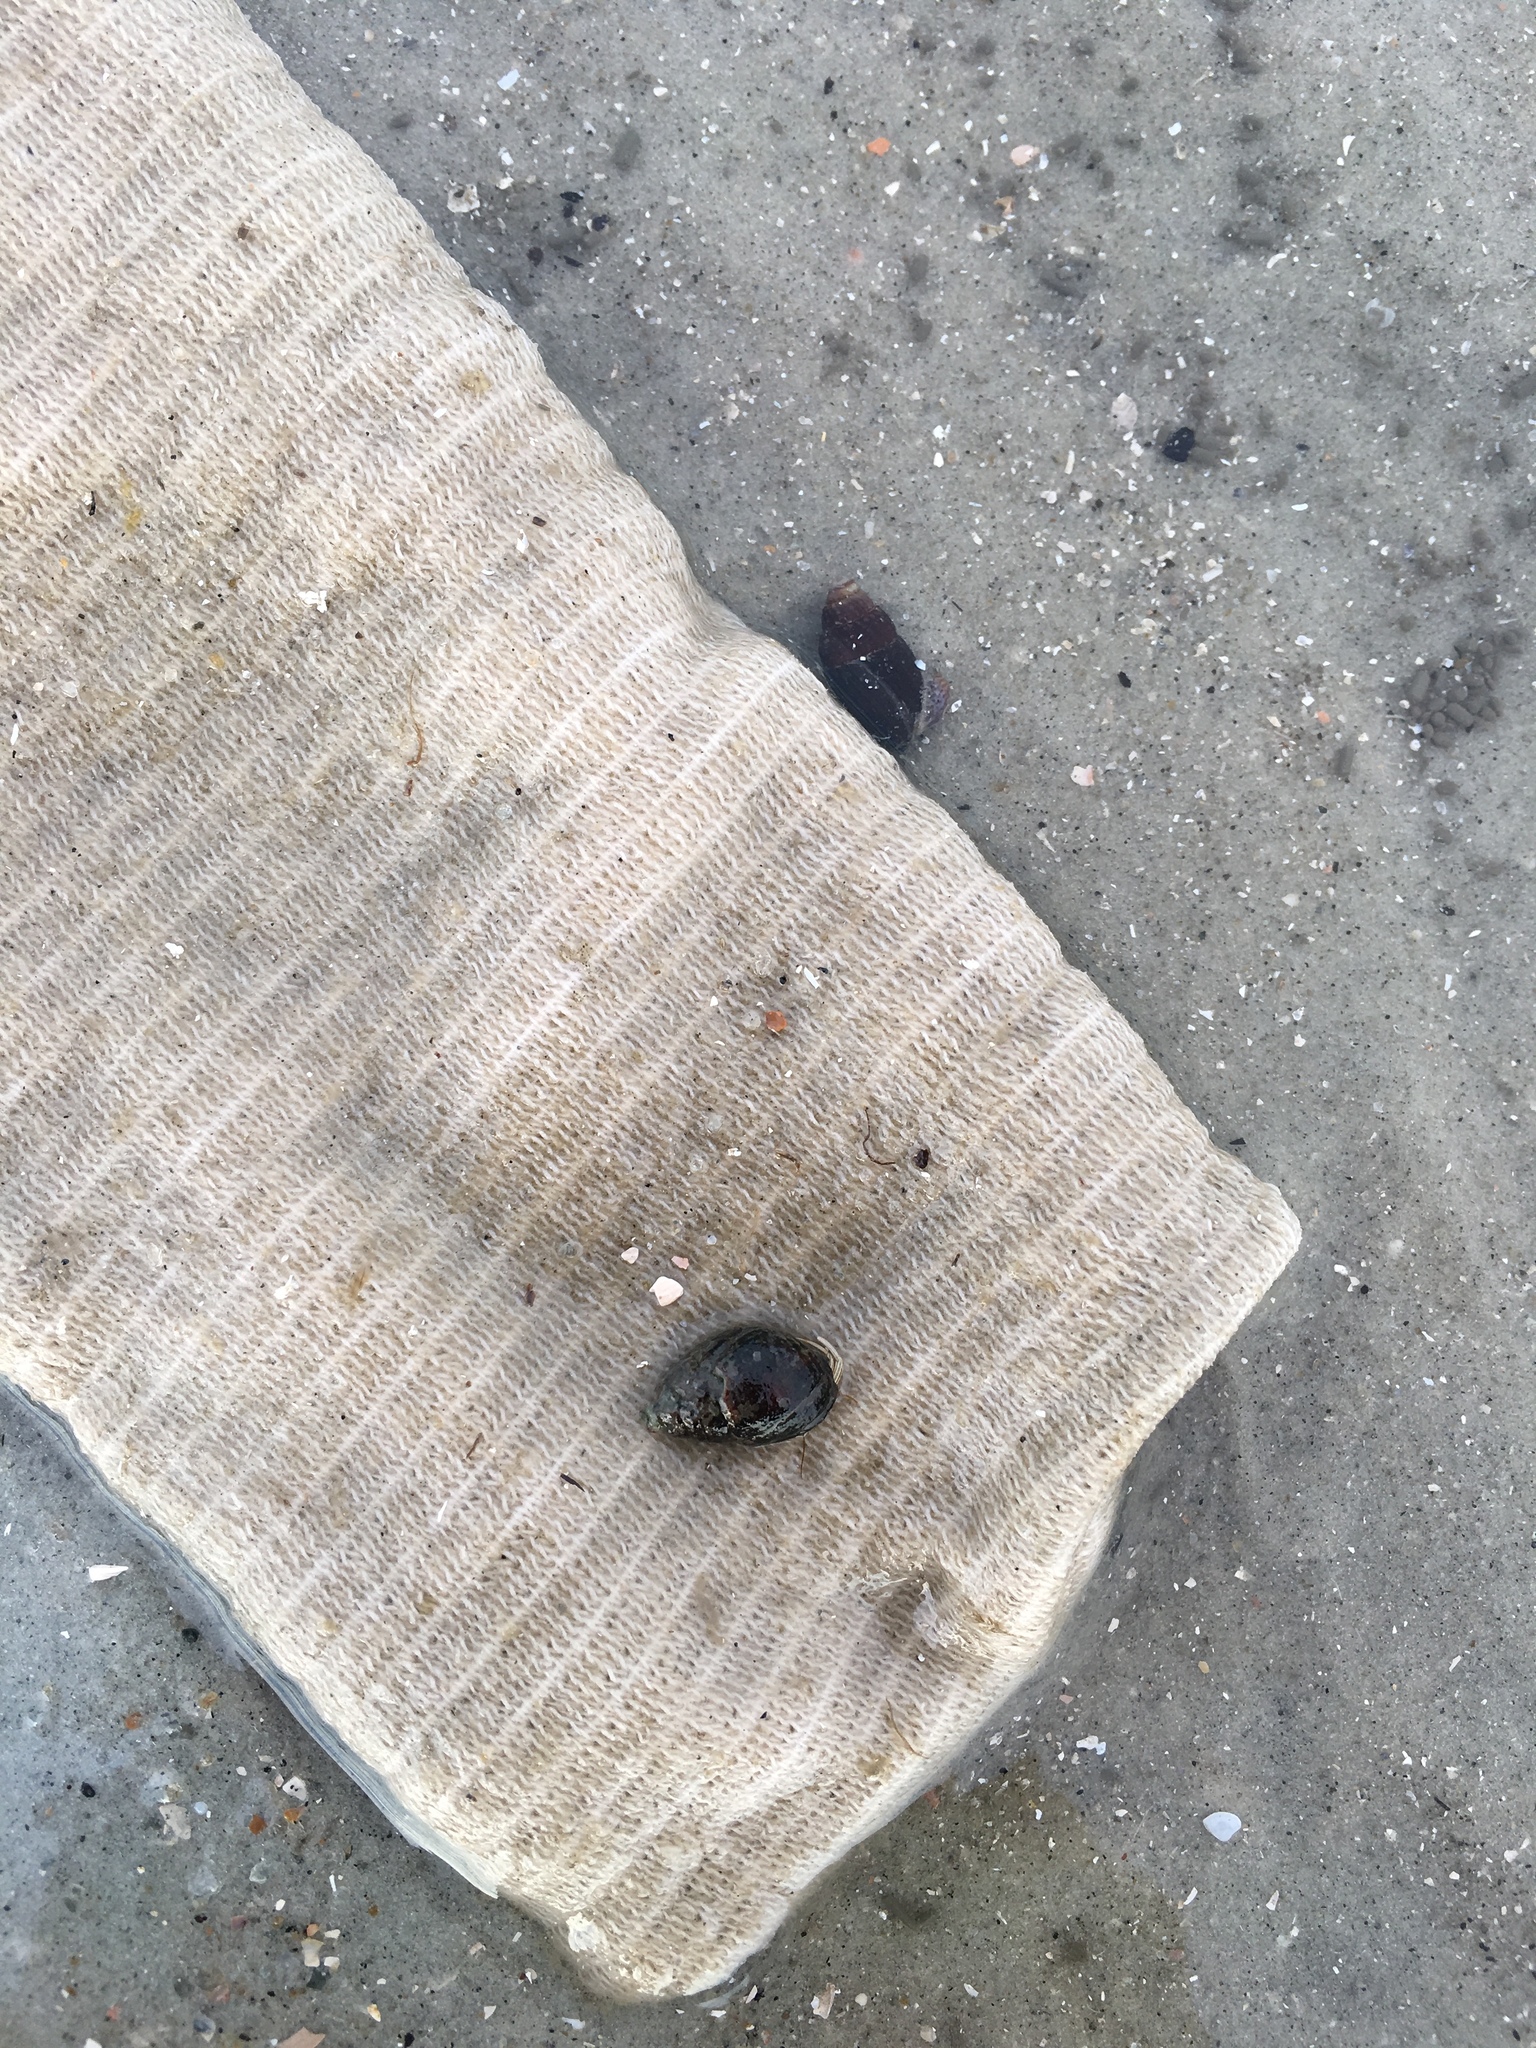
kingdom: Animalia
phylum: Arthropoda
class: Malacostraca
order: Decapoda
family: Diogenidae
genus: Clibanarius
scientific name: Clibanarius vittatus
